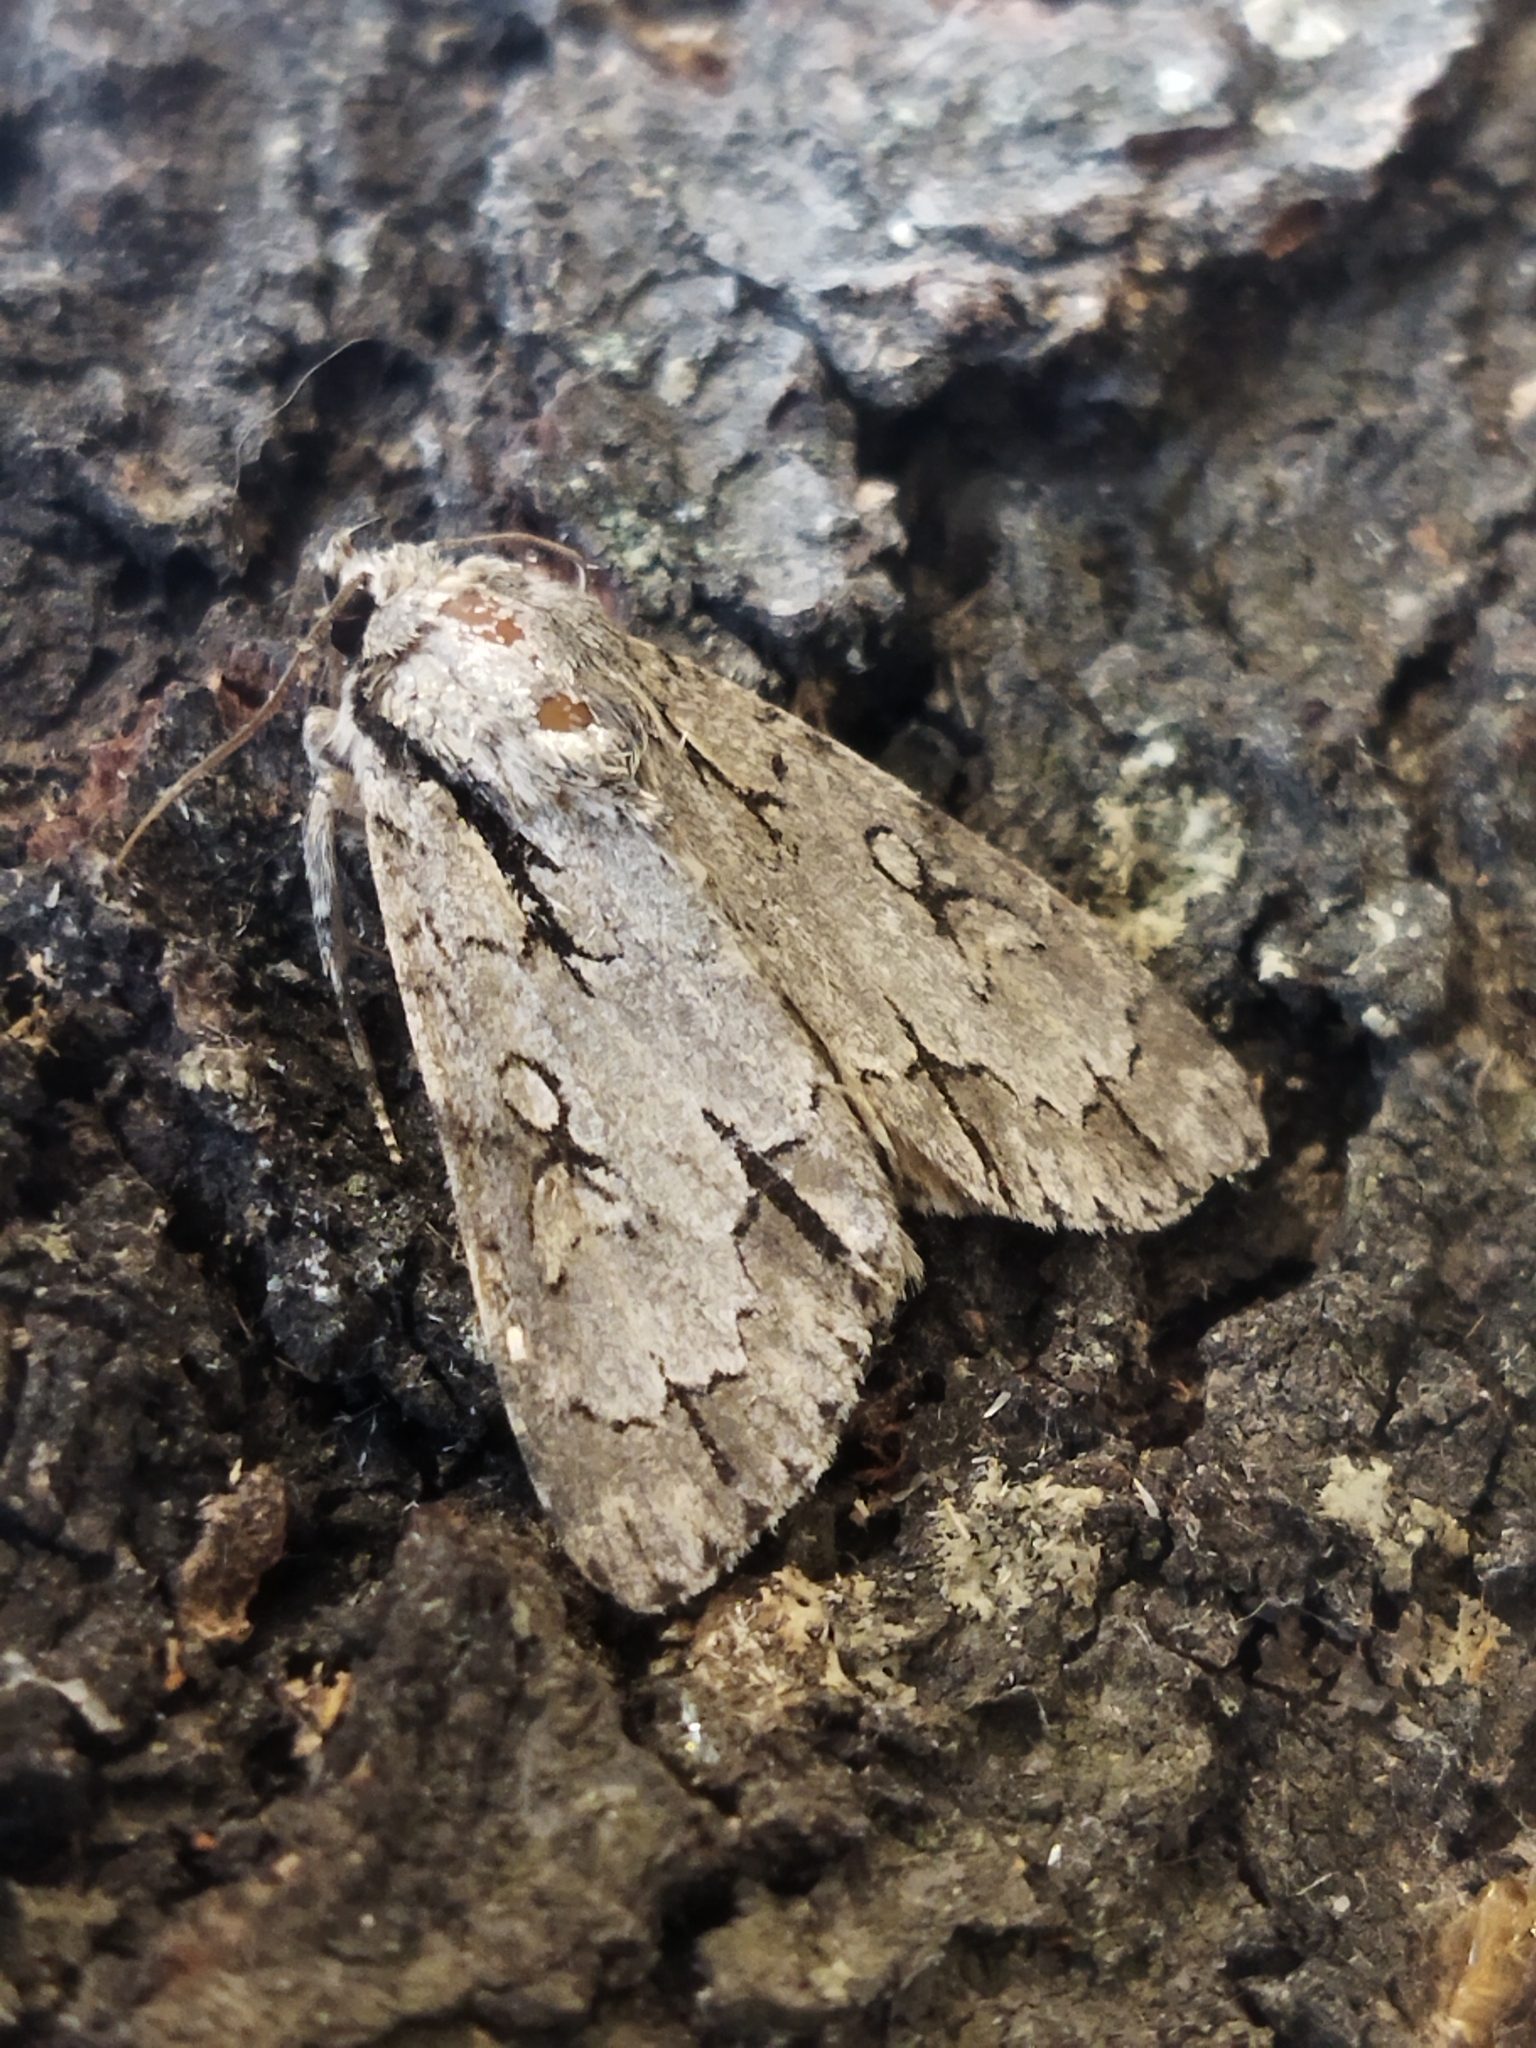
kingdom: Animalia
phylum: Arthropoda
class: Insecta
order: Lepidoptera
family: Noctuidae
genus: Acronicta
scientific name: Acronicta
